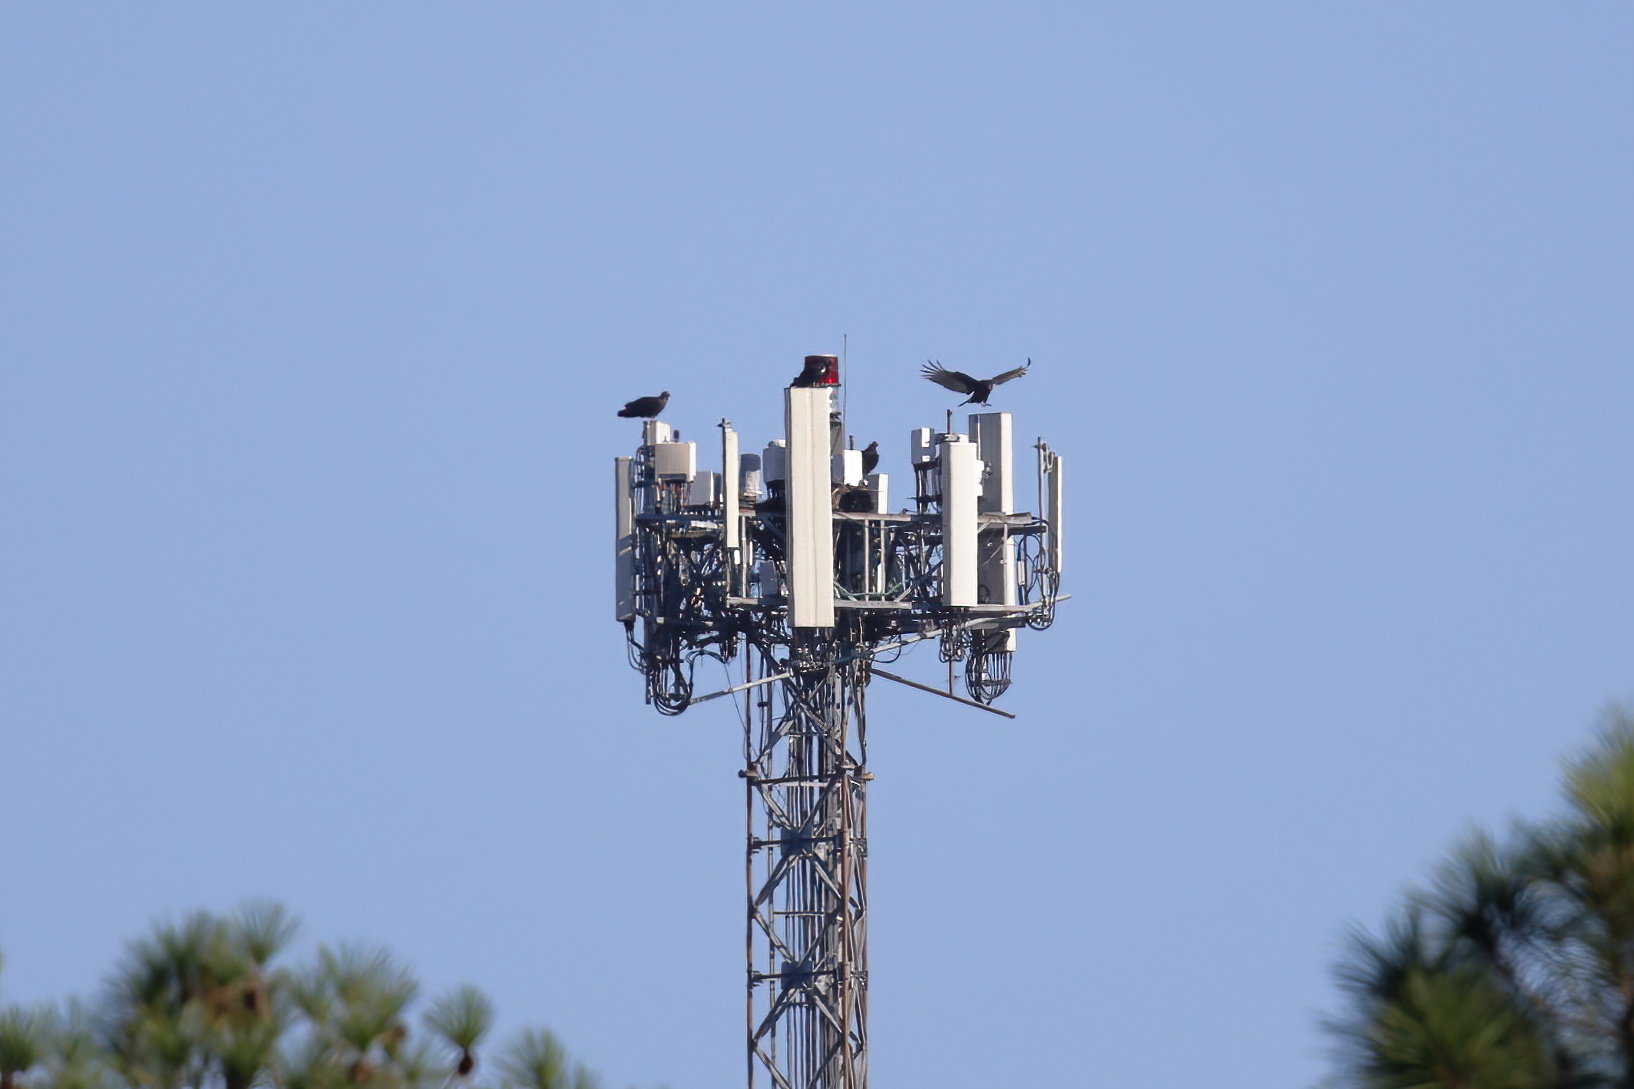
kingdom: Animalia
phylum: Chordata
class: Aves
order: Accipitriformes
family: Cathartidae
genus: Coragyps
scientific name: Coragyps atratus
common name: Black vulture
